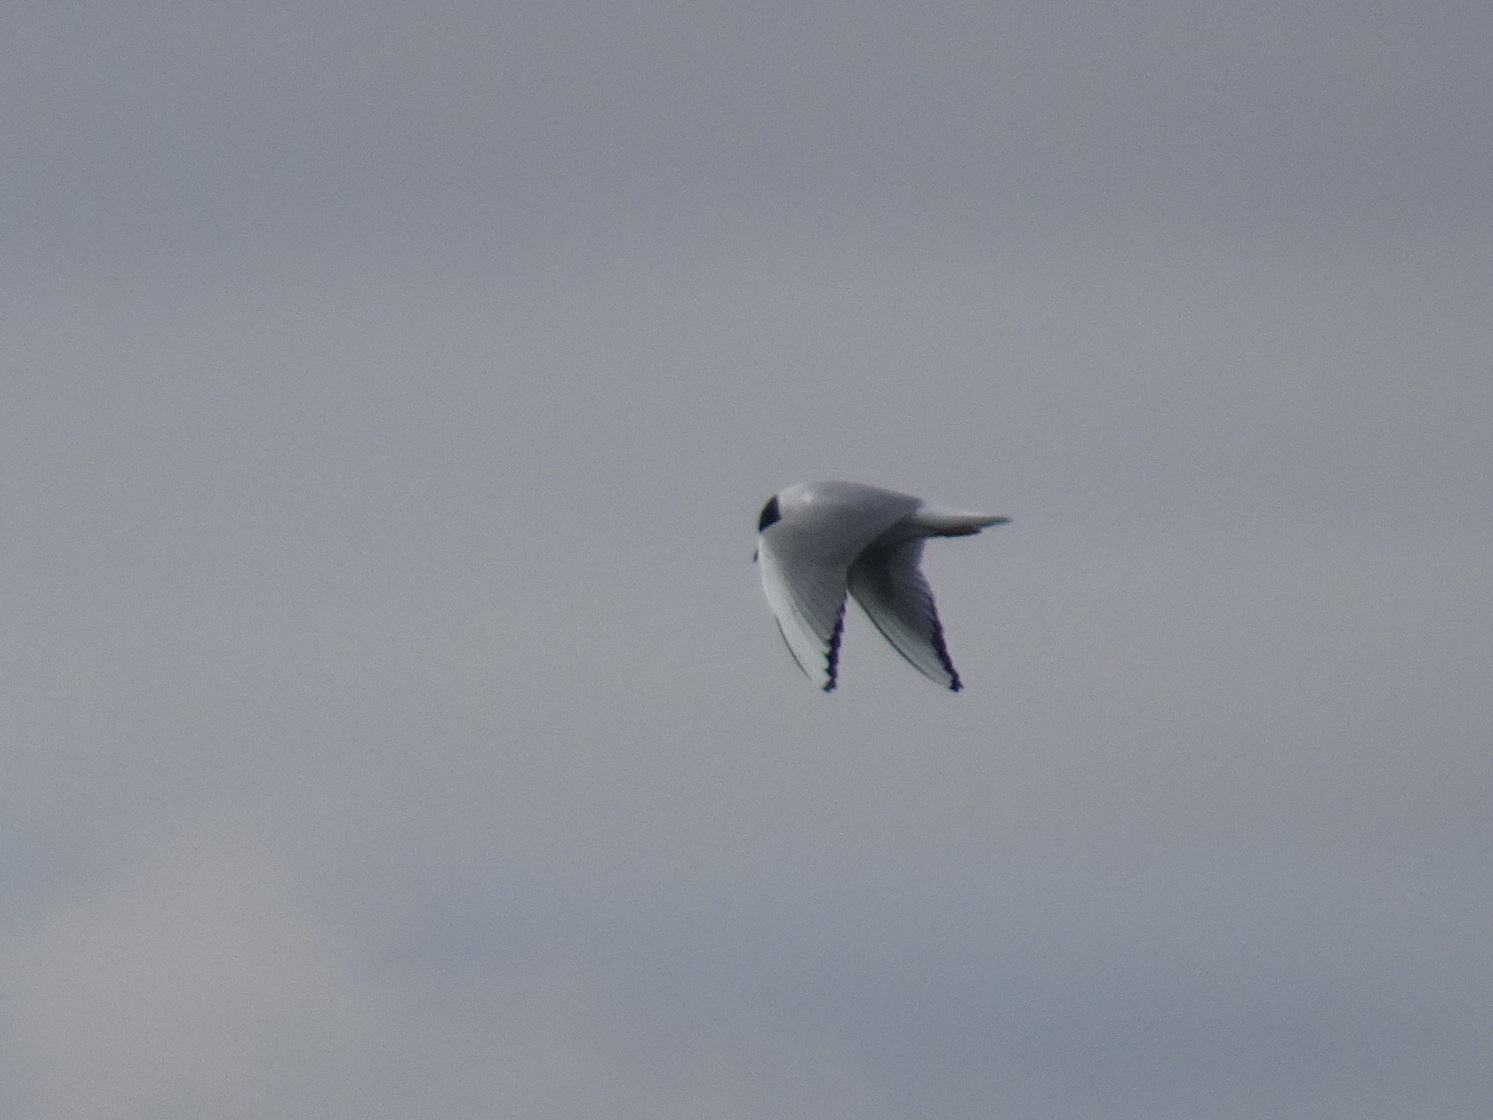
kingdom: Animalia
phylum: Chordata
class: Aves
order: Charadriiformes
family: Laridae
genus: Chroicocephalus
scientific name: Chroicocephalus philadelphia
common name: Bonaparte's gull
